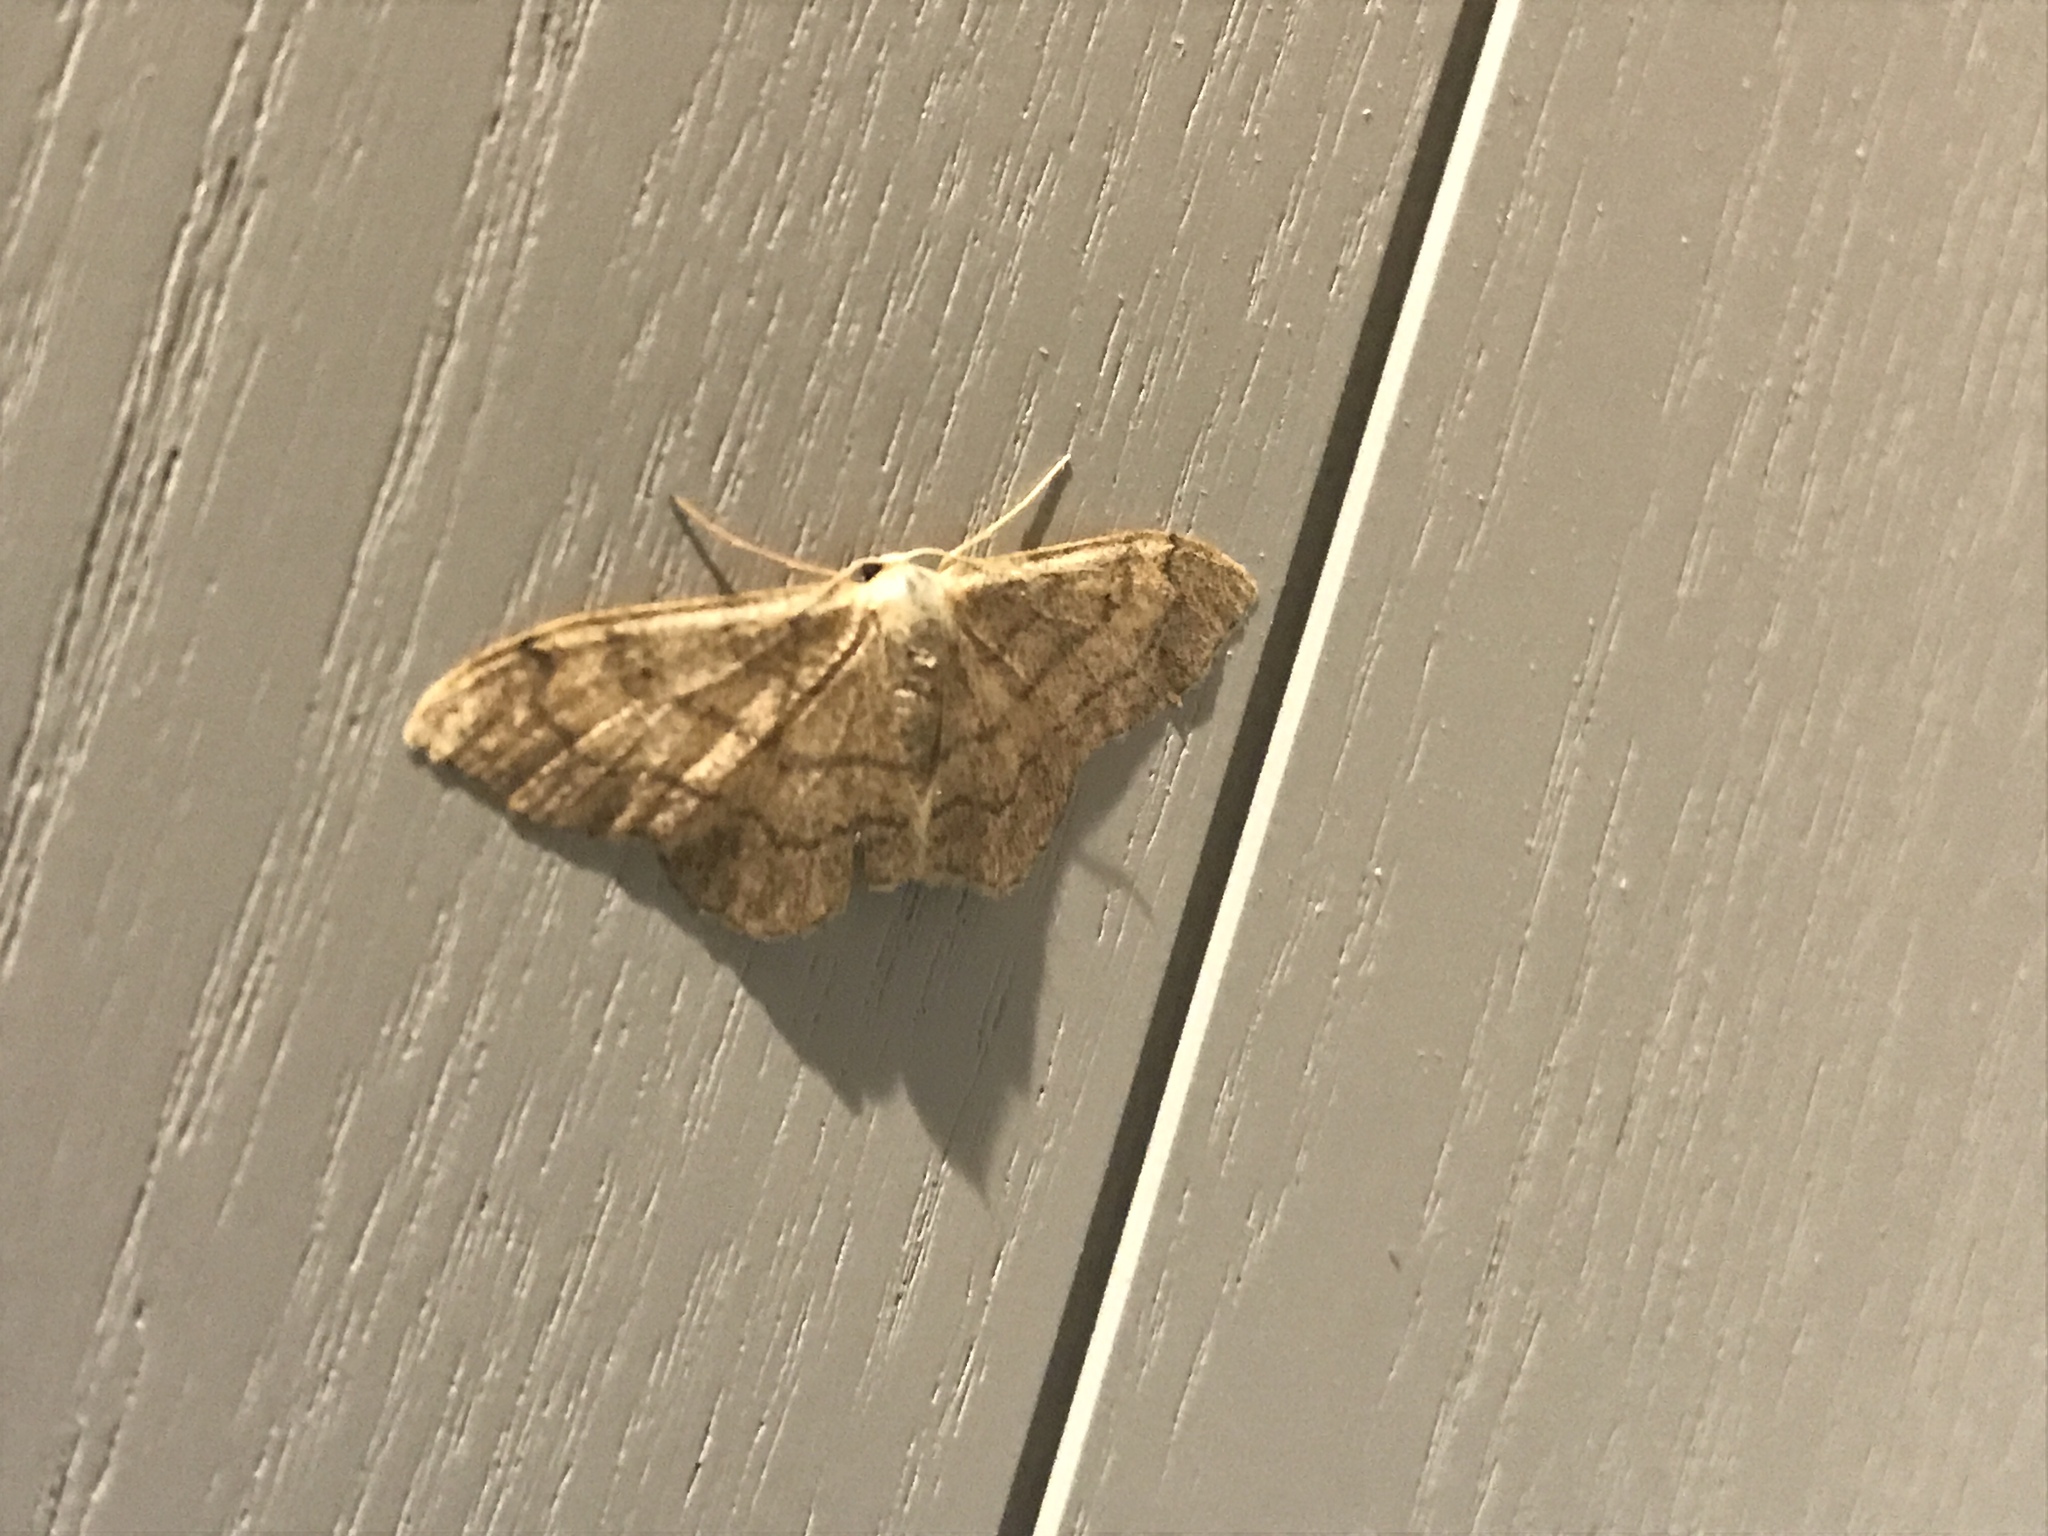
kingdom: Animalia
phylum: Arthropoda
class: Insecta
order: Lepidoptera
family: Geometridae
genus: Idaea
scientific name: Idaea aversata
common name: Riband wave
